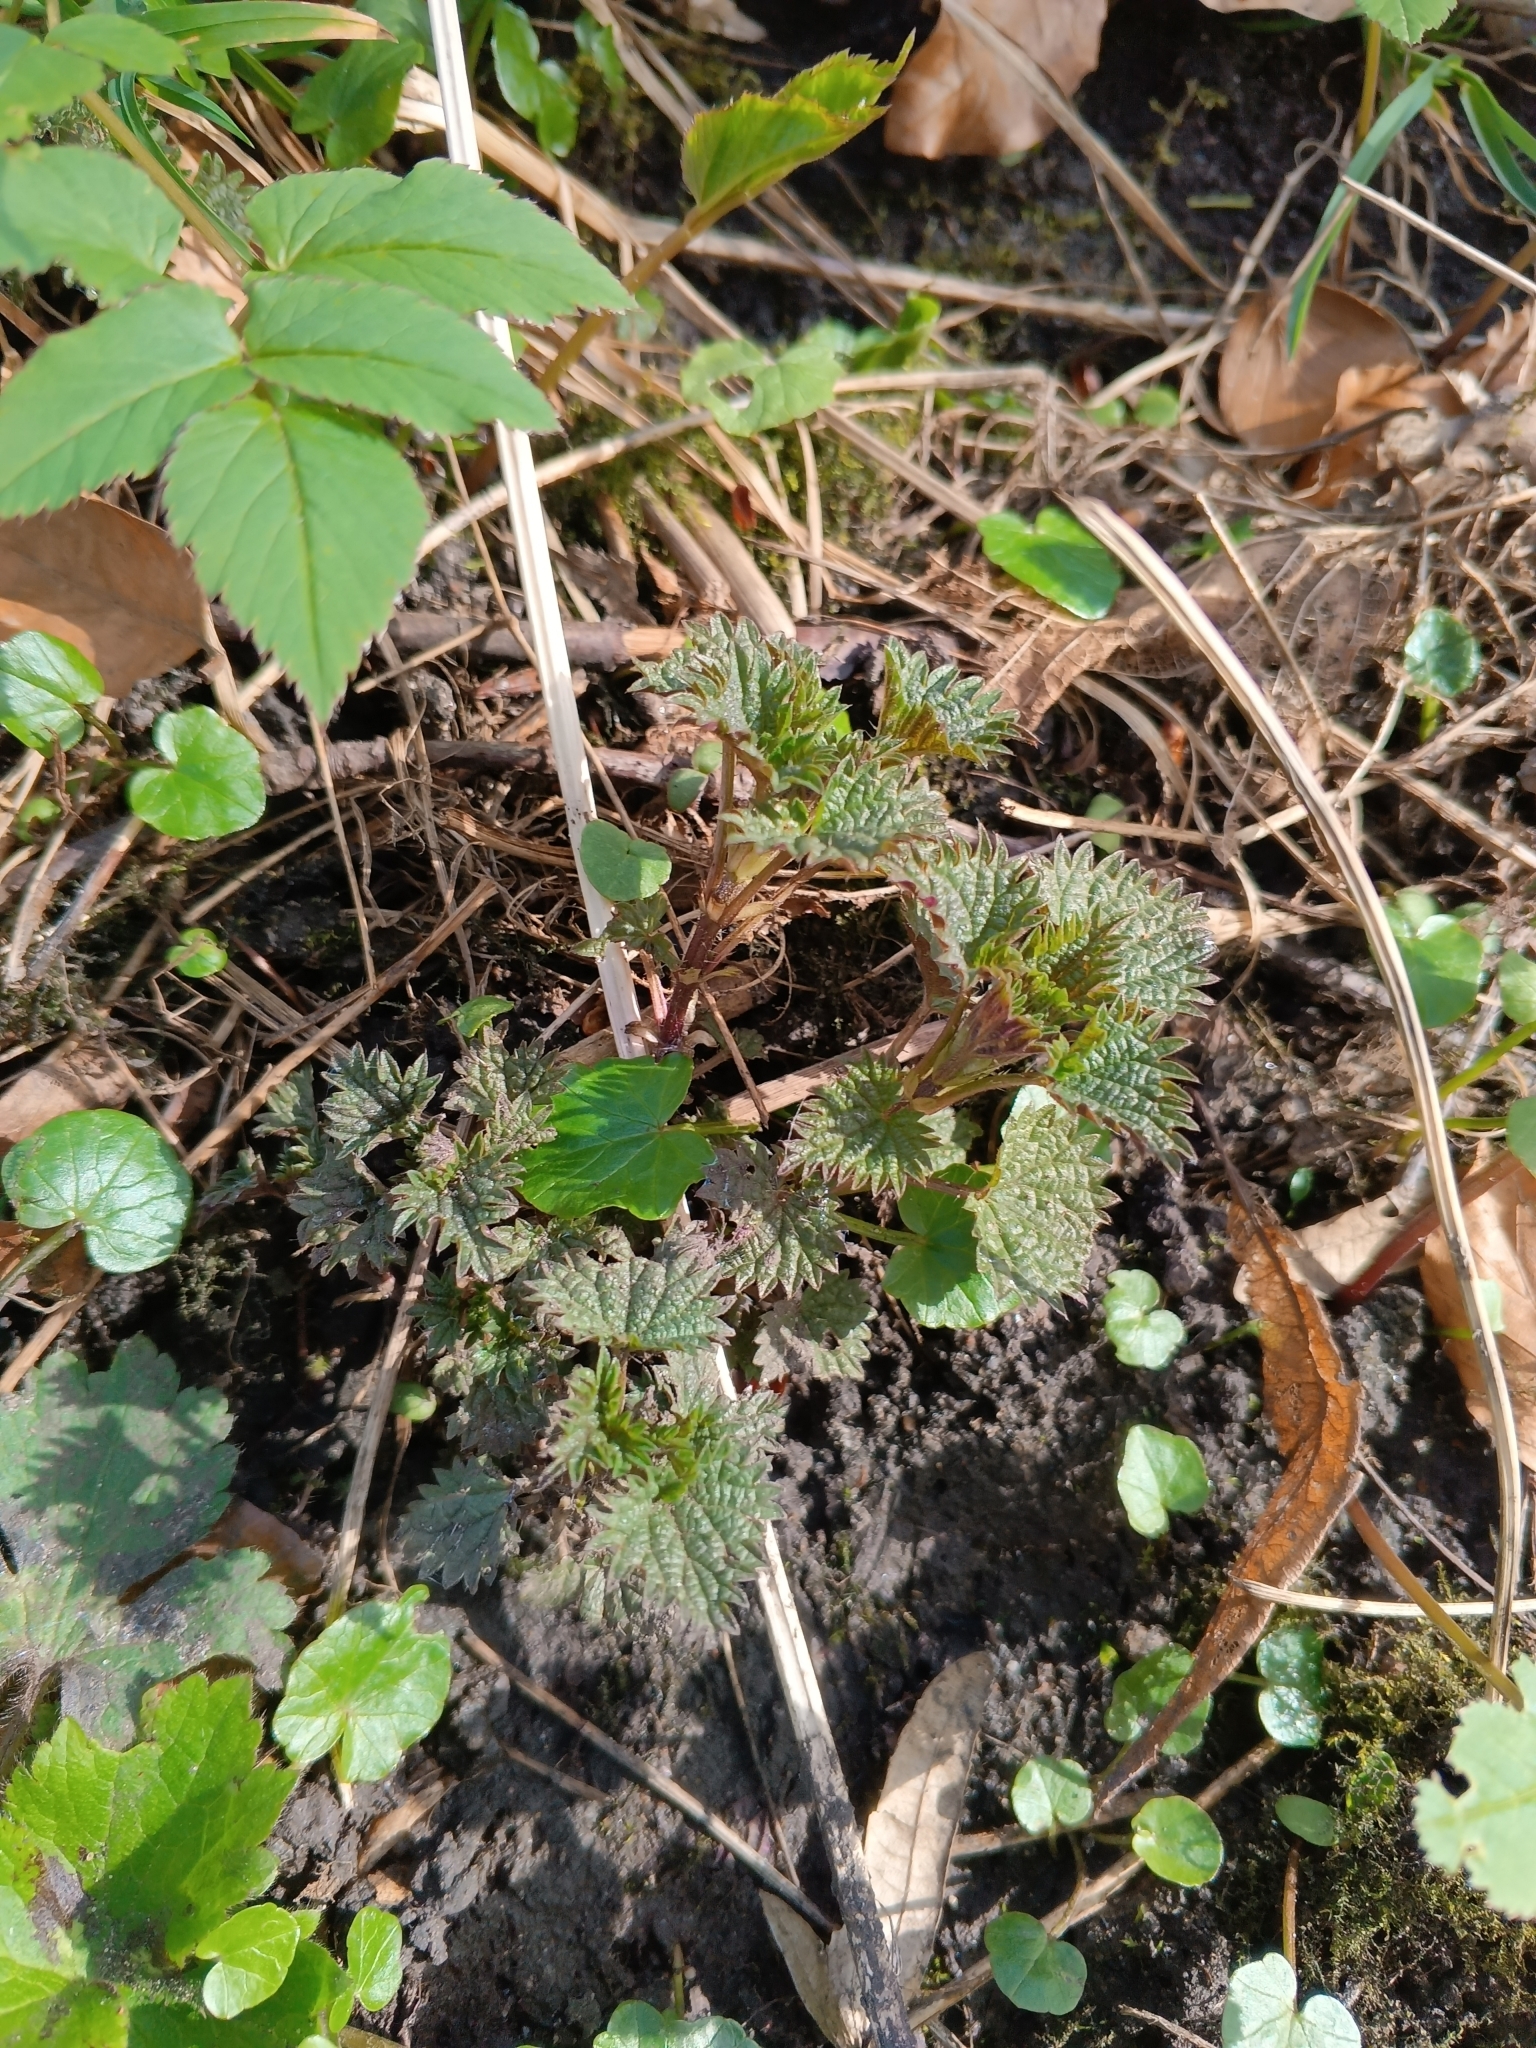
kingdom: Plantae
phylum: Tracheophyta
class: Magnoliopsida
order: Rosales
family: Urticaceae
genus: Urtica
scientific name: Urtica dioica
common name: Common nettle
